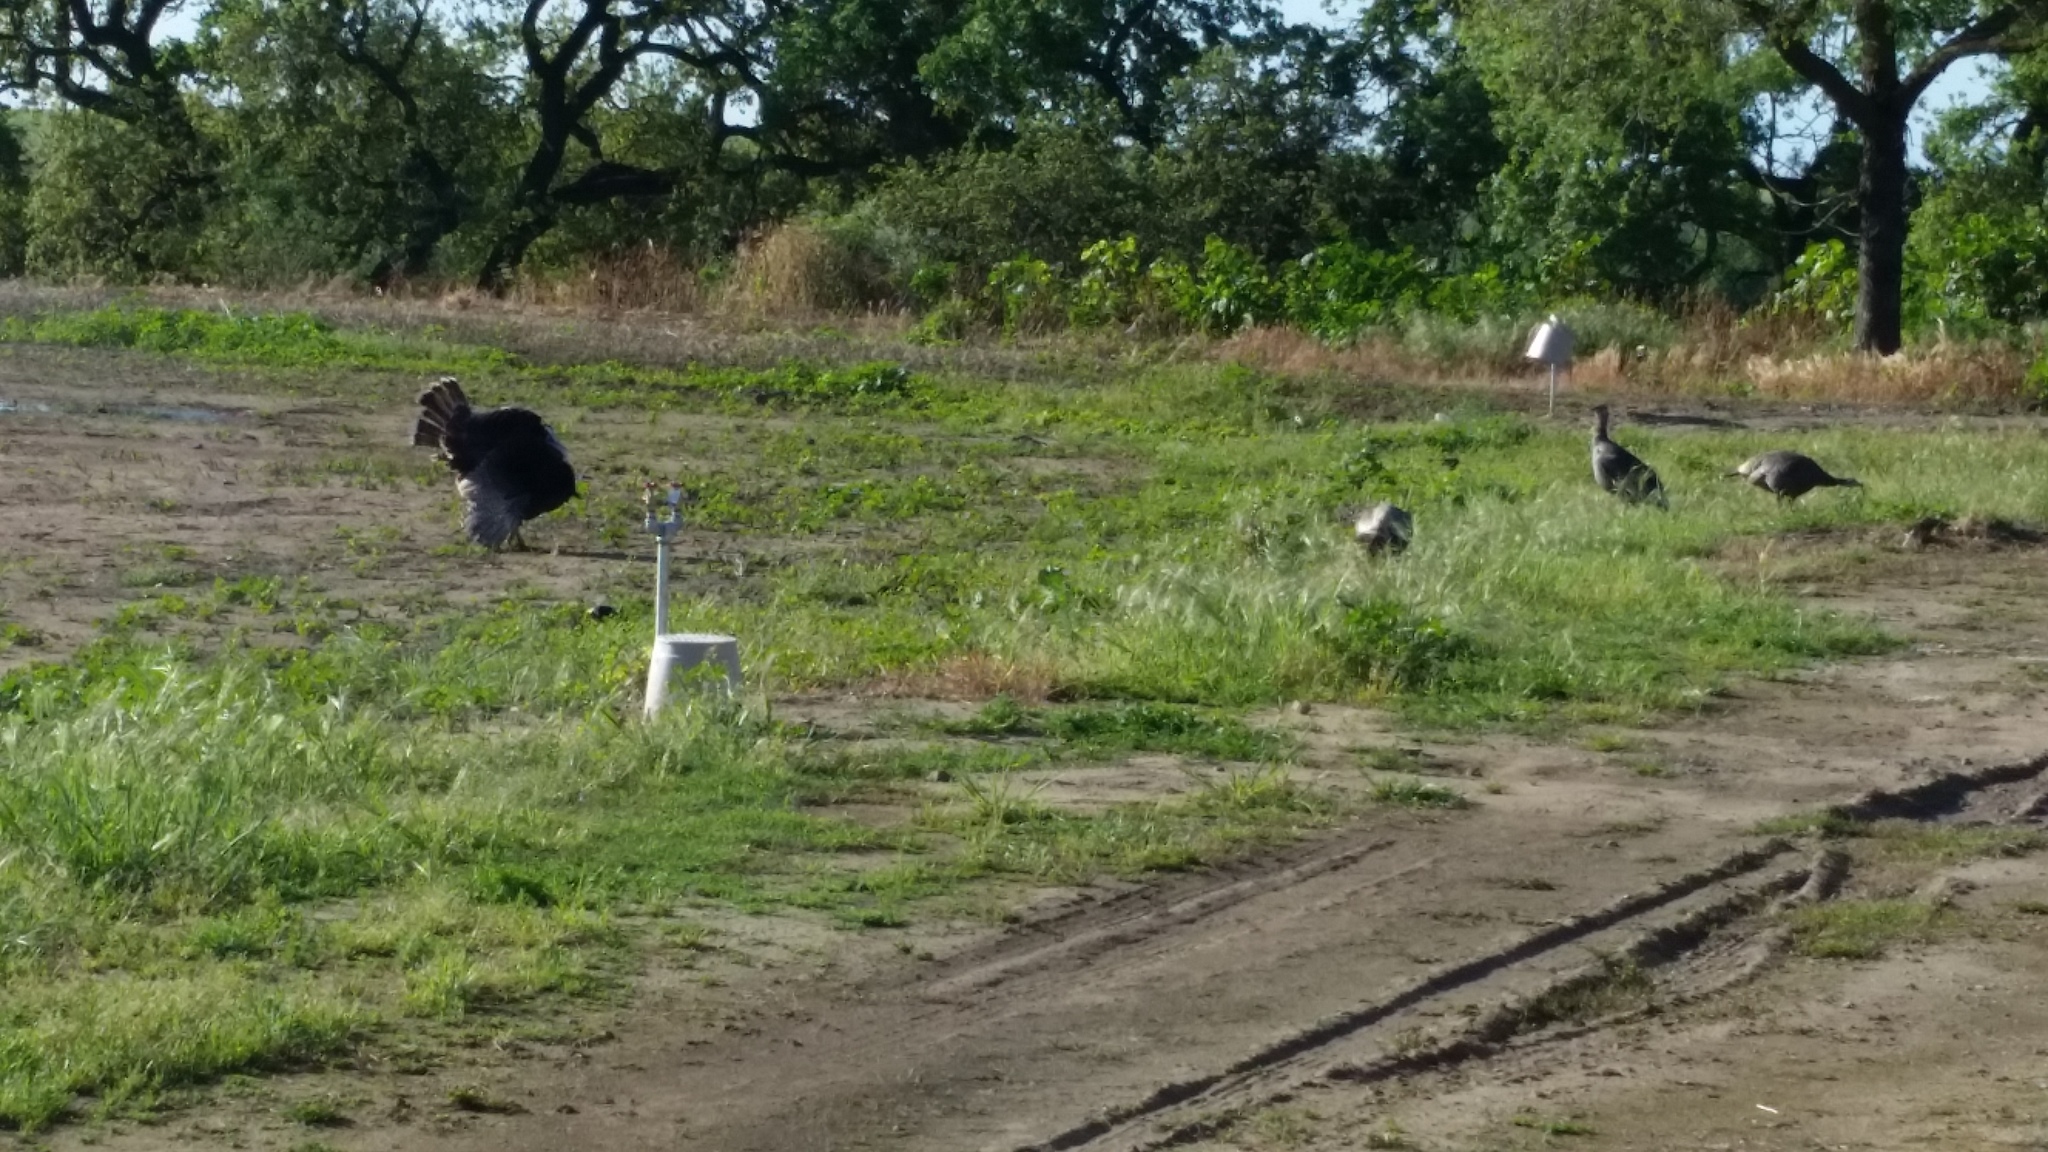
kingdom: Animalia
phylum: Chordata
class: Aves
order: Galliformes
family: Phasianidae
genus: Meleagris
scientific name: Meleagris gallopavo
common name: Wild turkey
